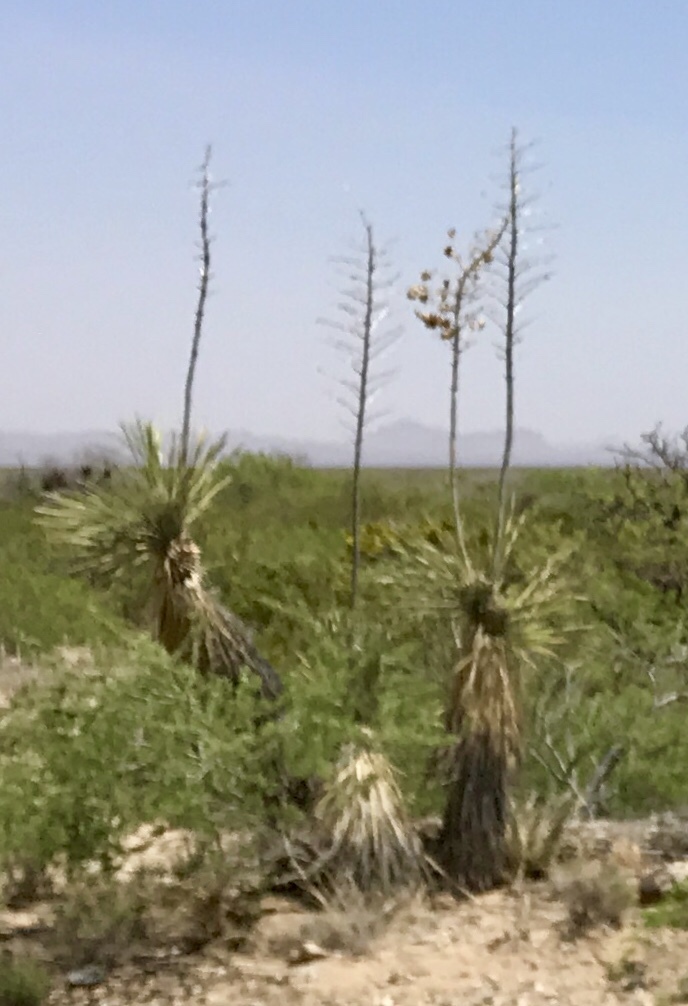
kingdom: Plantae
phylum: Tracheophyta
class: Liliopsida
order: Asparagales
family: Asparagaceae
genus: Yucca
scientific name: Yucca elata
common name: Palmella
